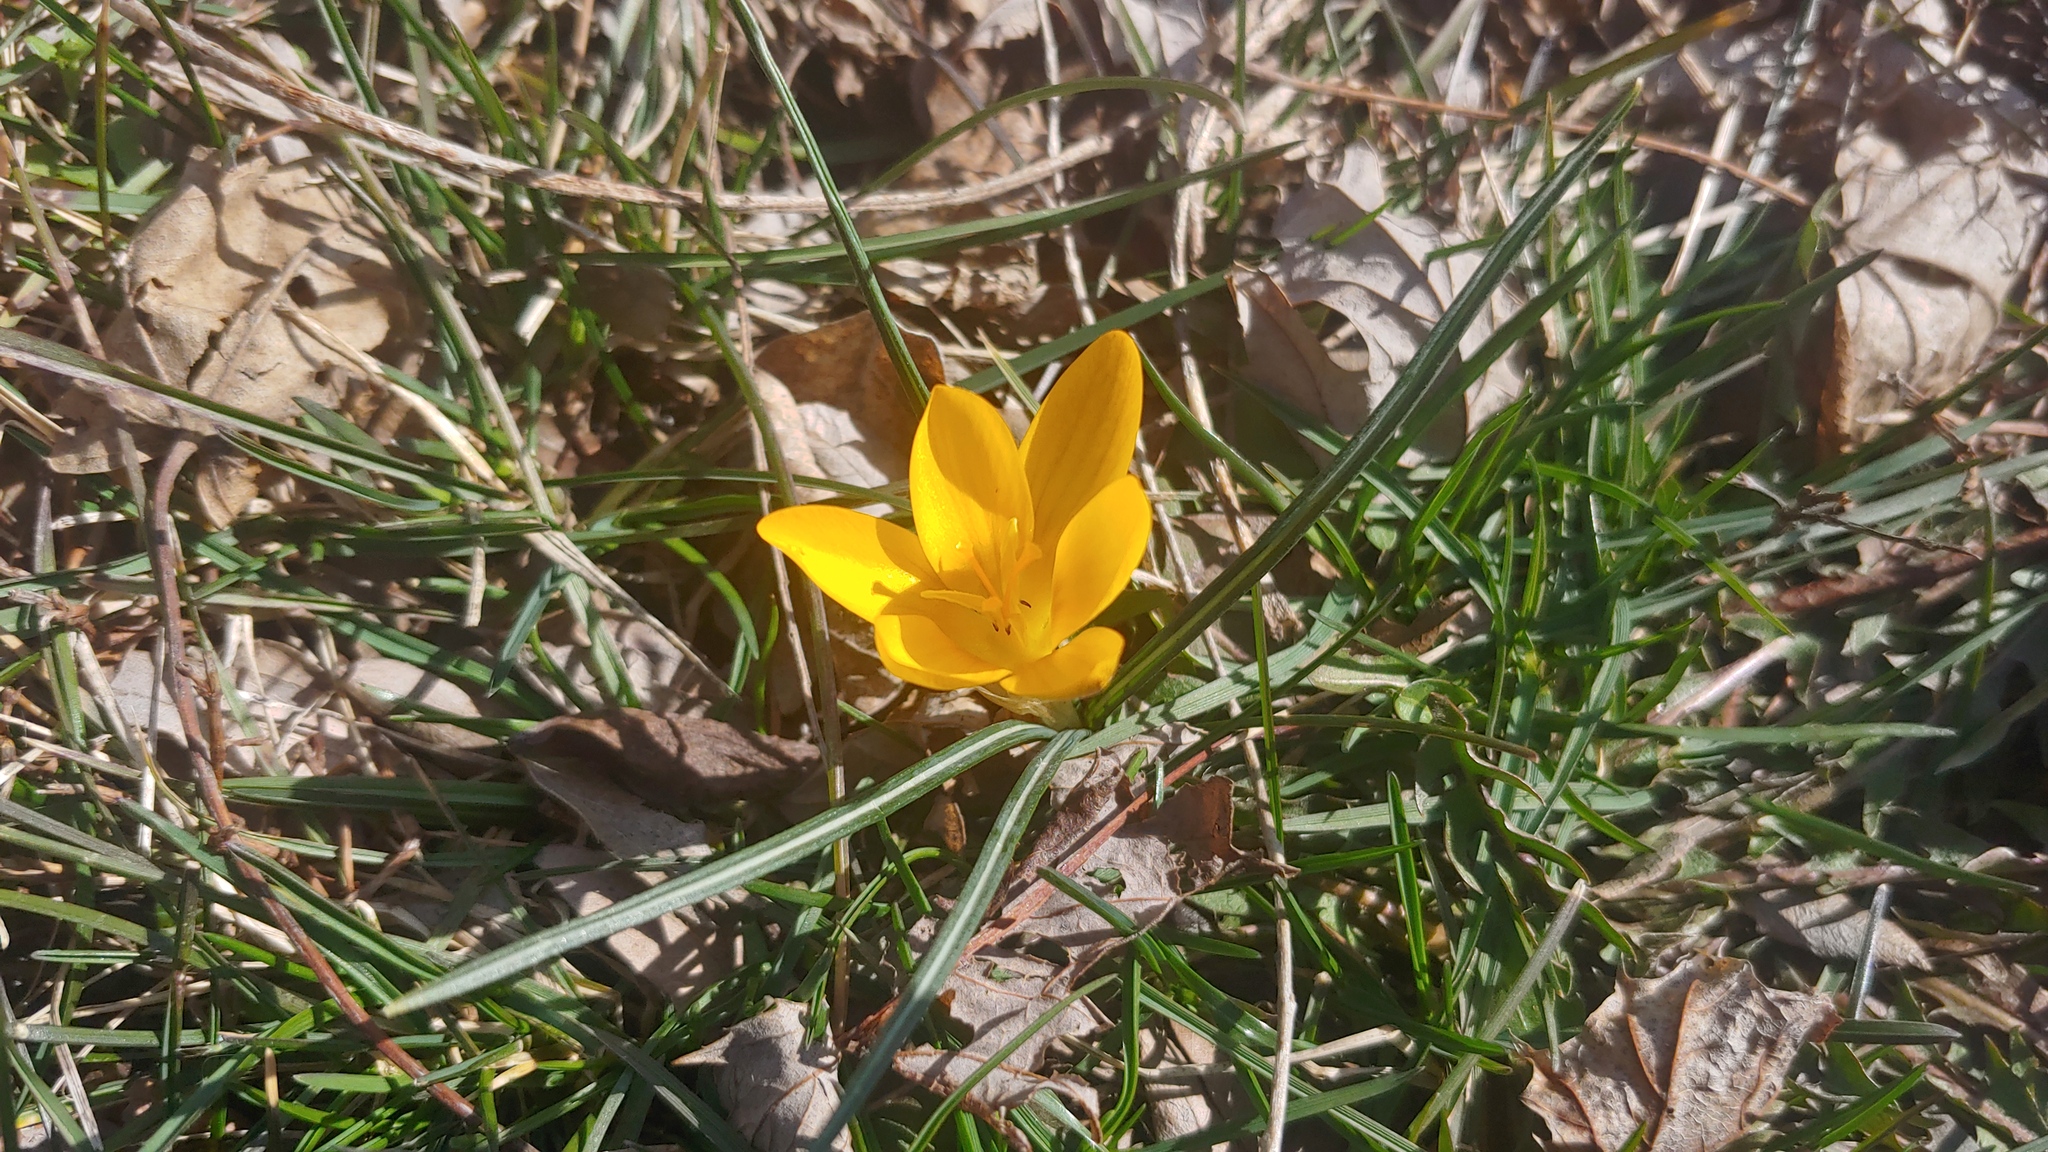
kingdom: Plantae
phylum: Tracheophyta
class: Liliopsida
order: Asparagales
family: Iridaceae
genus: Crocus
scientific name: Crocus chrysanthus
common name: Golden crocus
